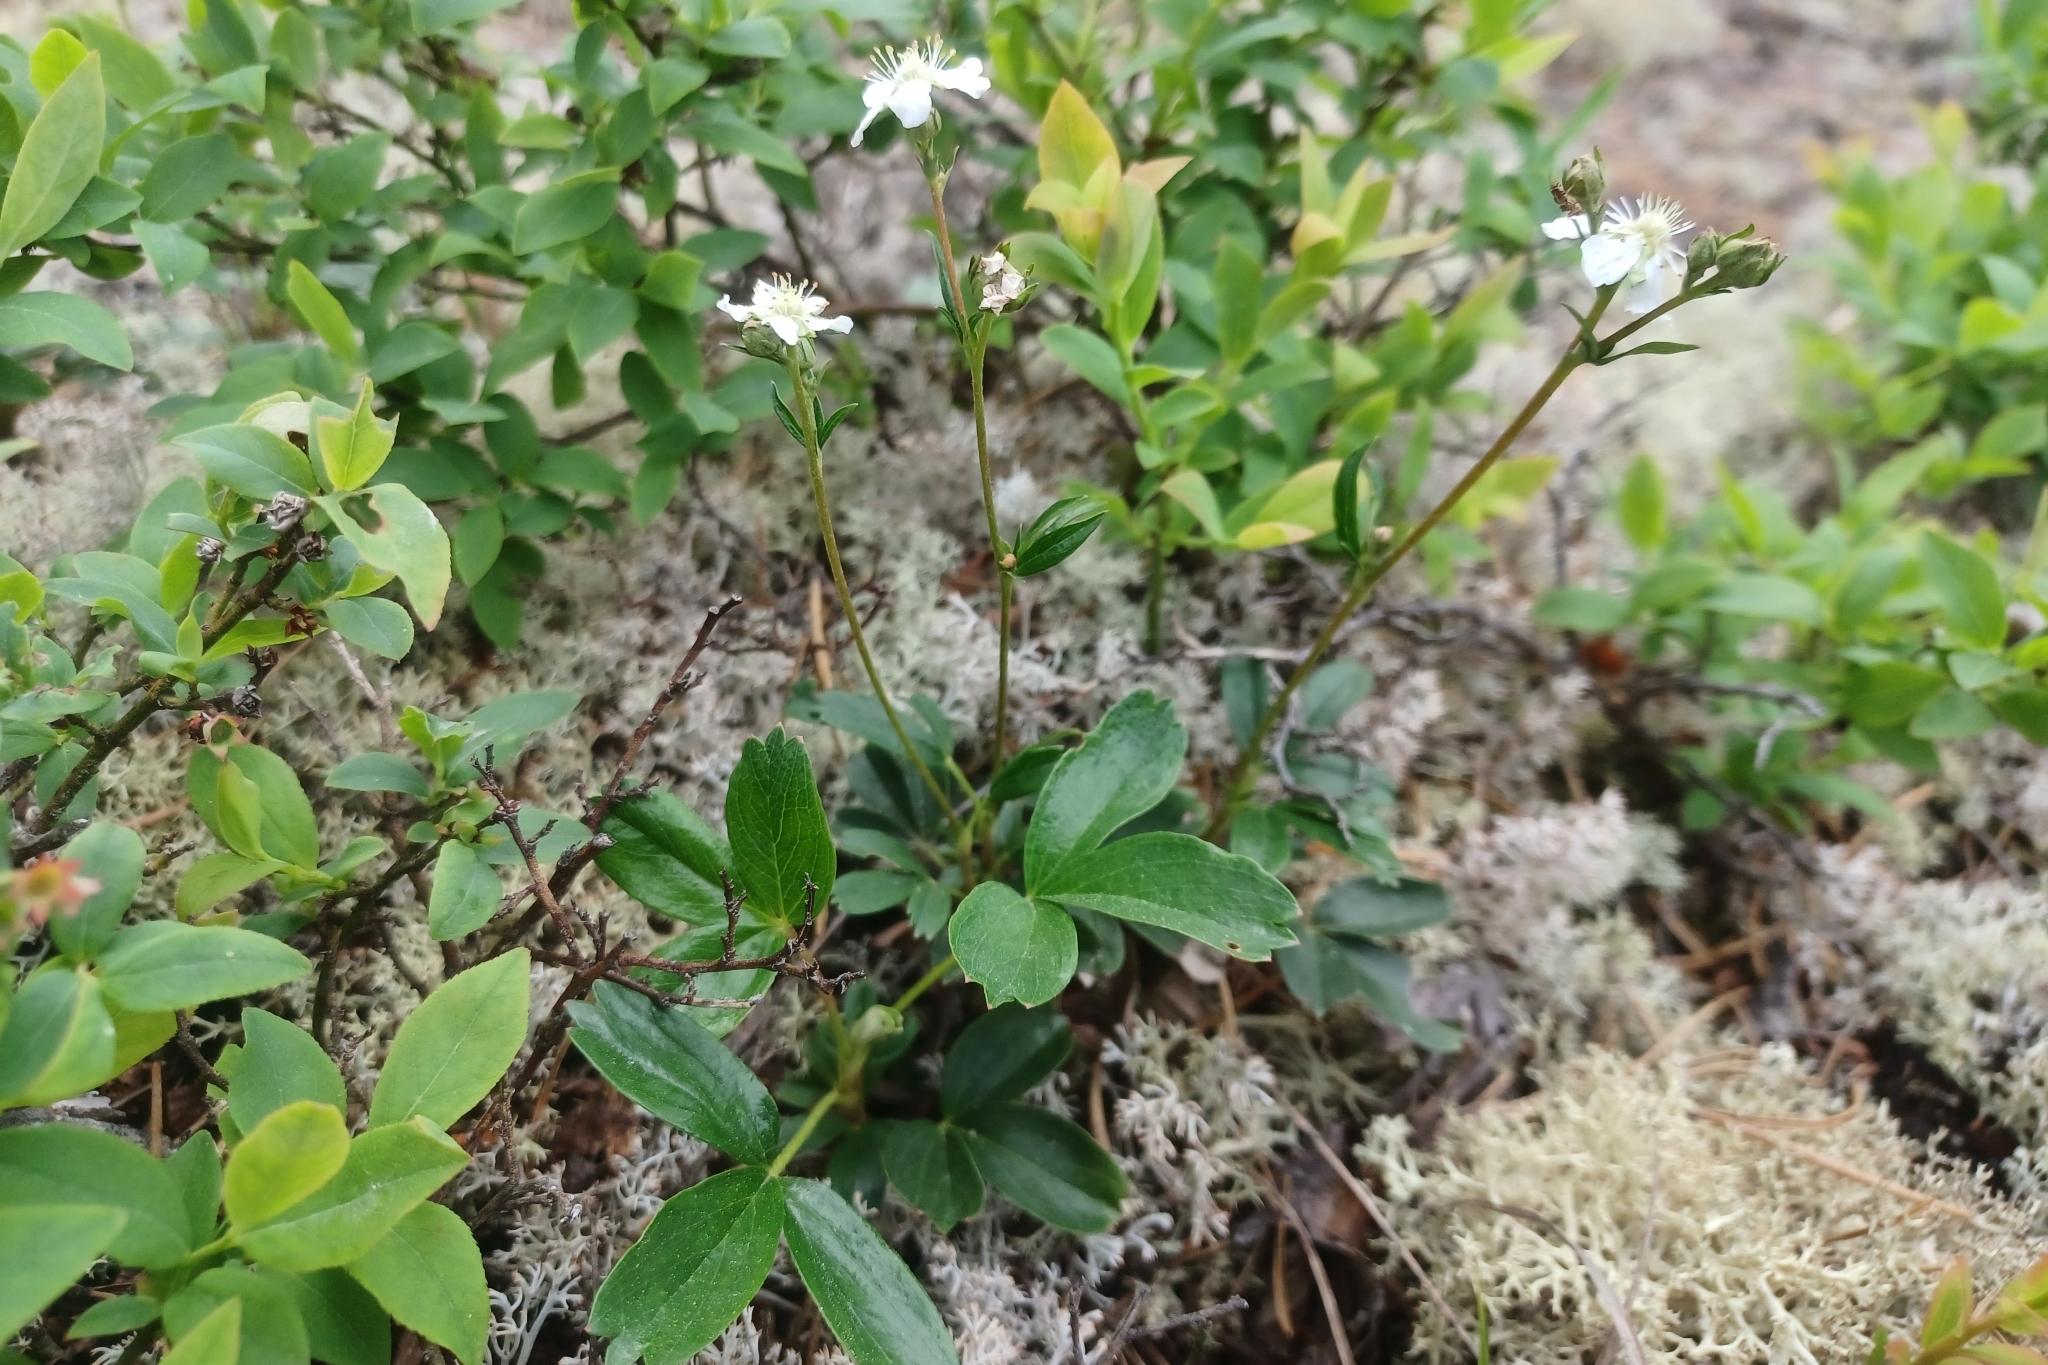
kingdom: Plantae
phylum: Tracheophyta
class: Magnoliopsida
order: Rosales
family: Rosaceae
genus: Sibbaldia
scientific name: Sibbaldia tridentata
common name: Three-toothed cinquefoil
